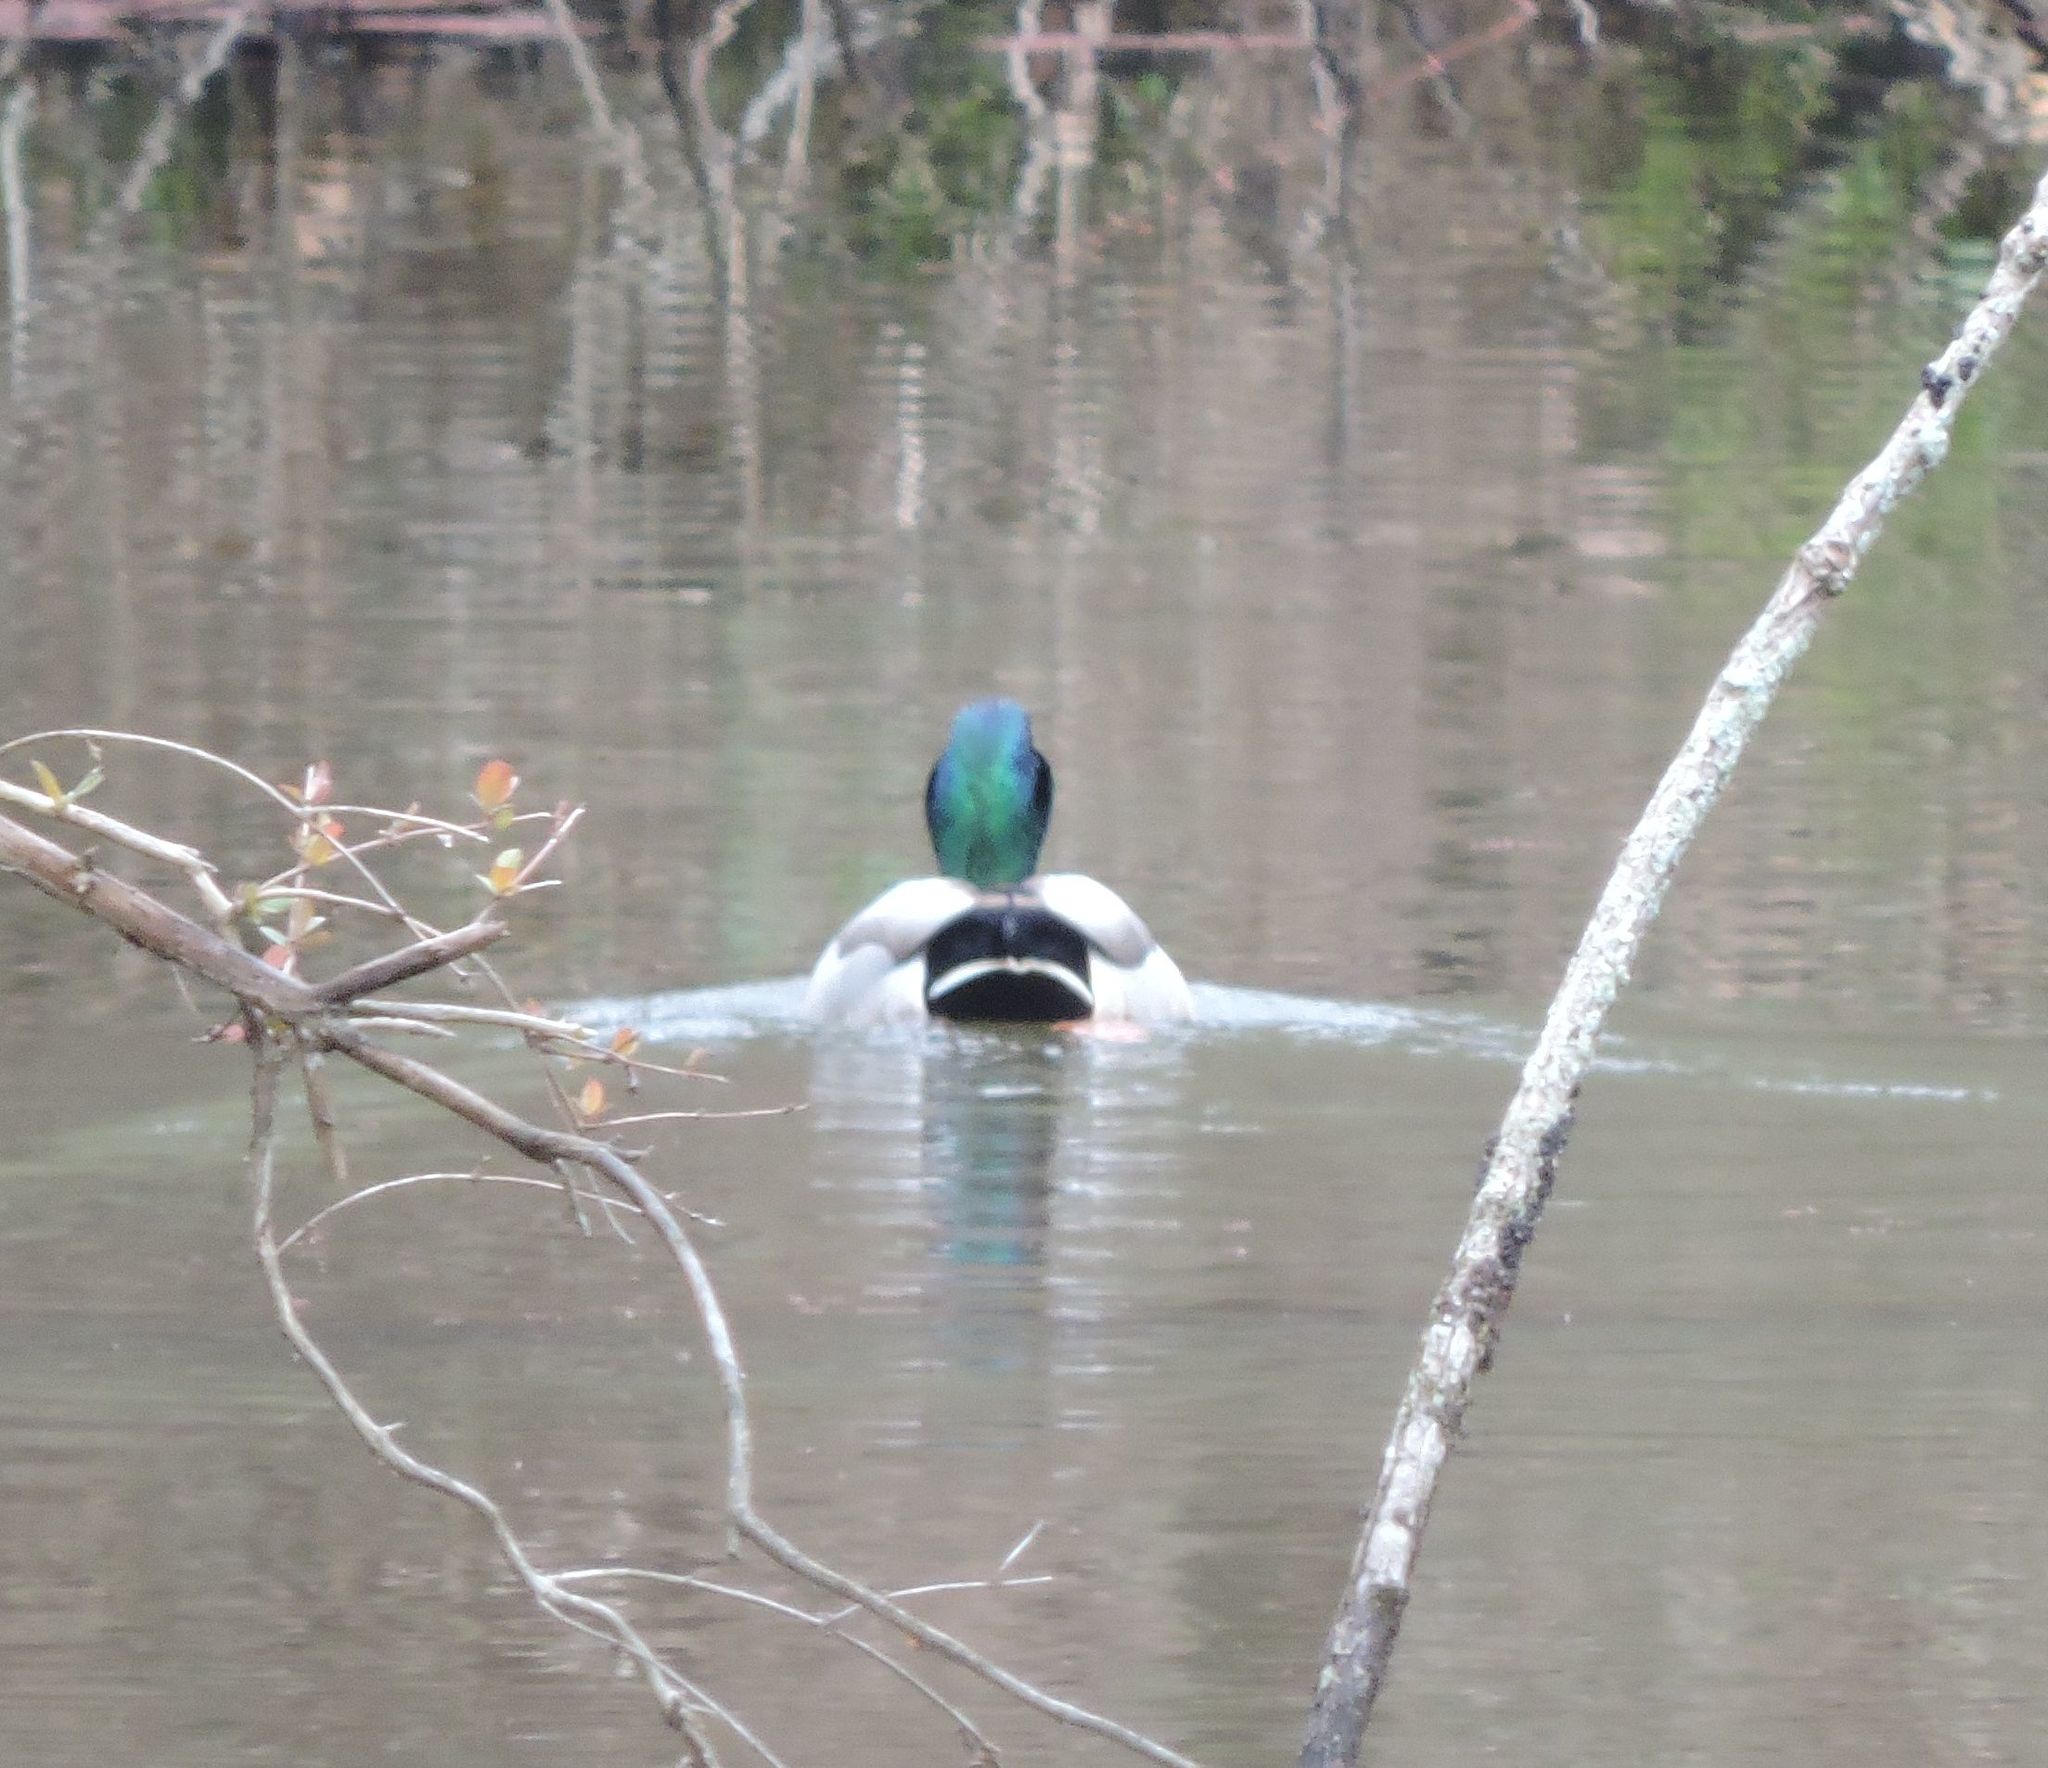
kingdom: Animalia
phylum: Chordata
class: Aves
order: Anseriformes
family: Anatidae
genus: Anas
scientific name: Anas platyrhynchos
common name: Mallard
